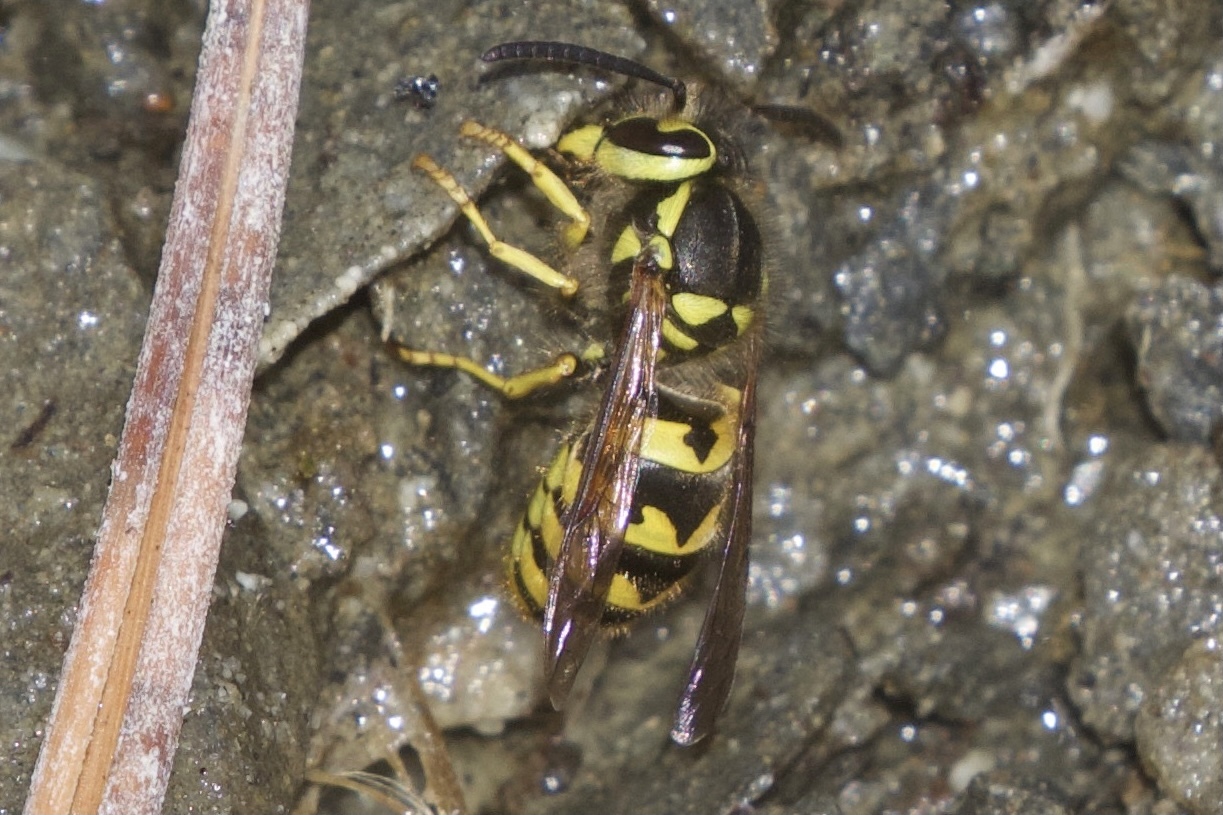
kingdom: Animalia
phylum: Arthropoda
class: Insecta
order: Hymenoptera
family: Vespidae
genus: Vespula
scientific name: Vespula pensylvanica
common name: Western yellowjacket
